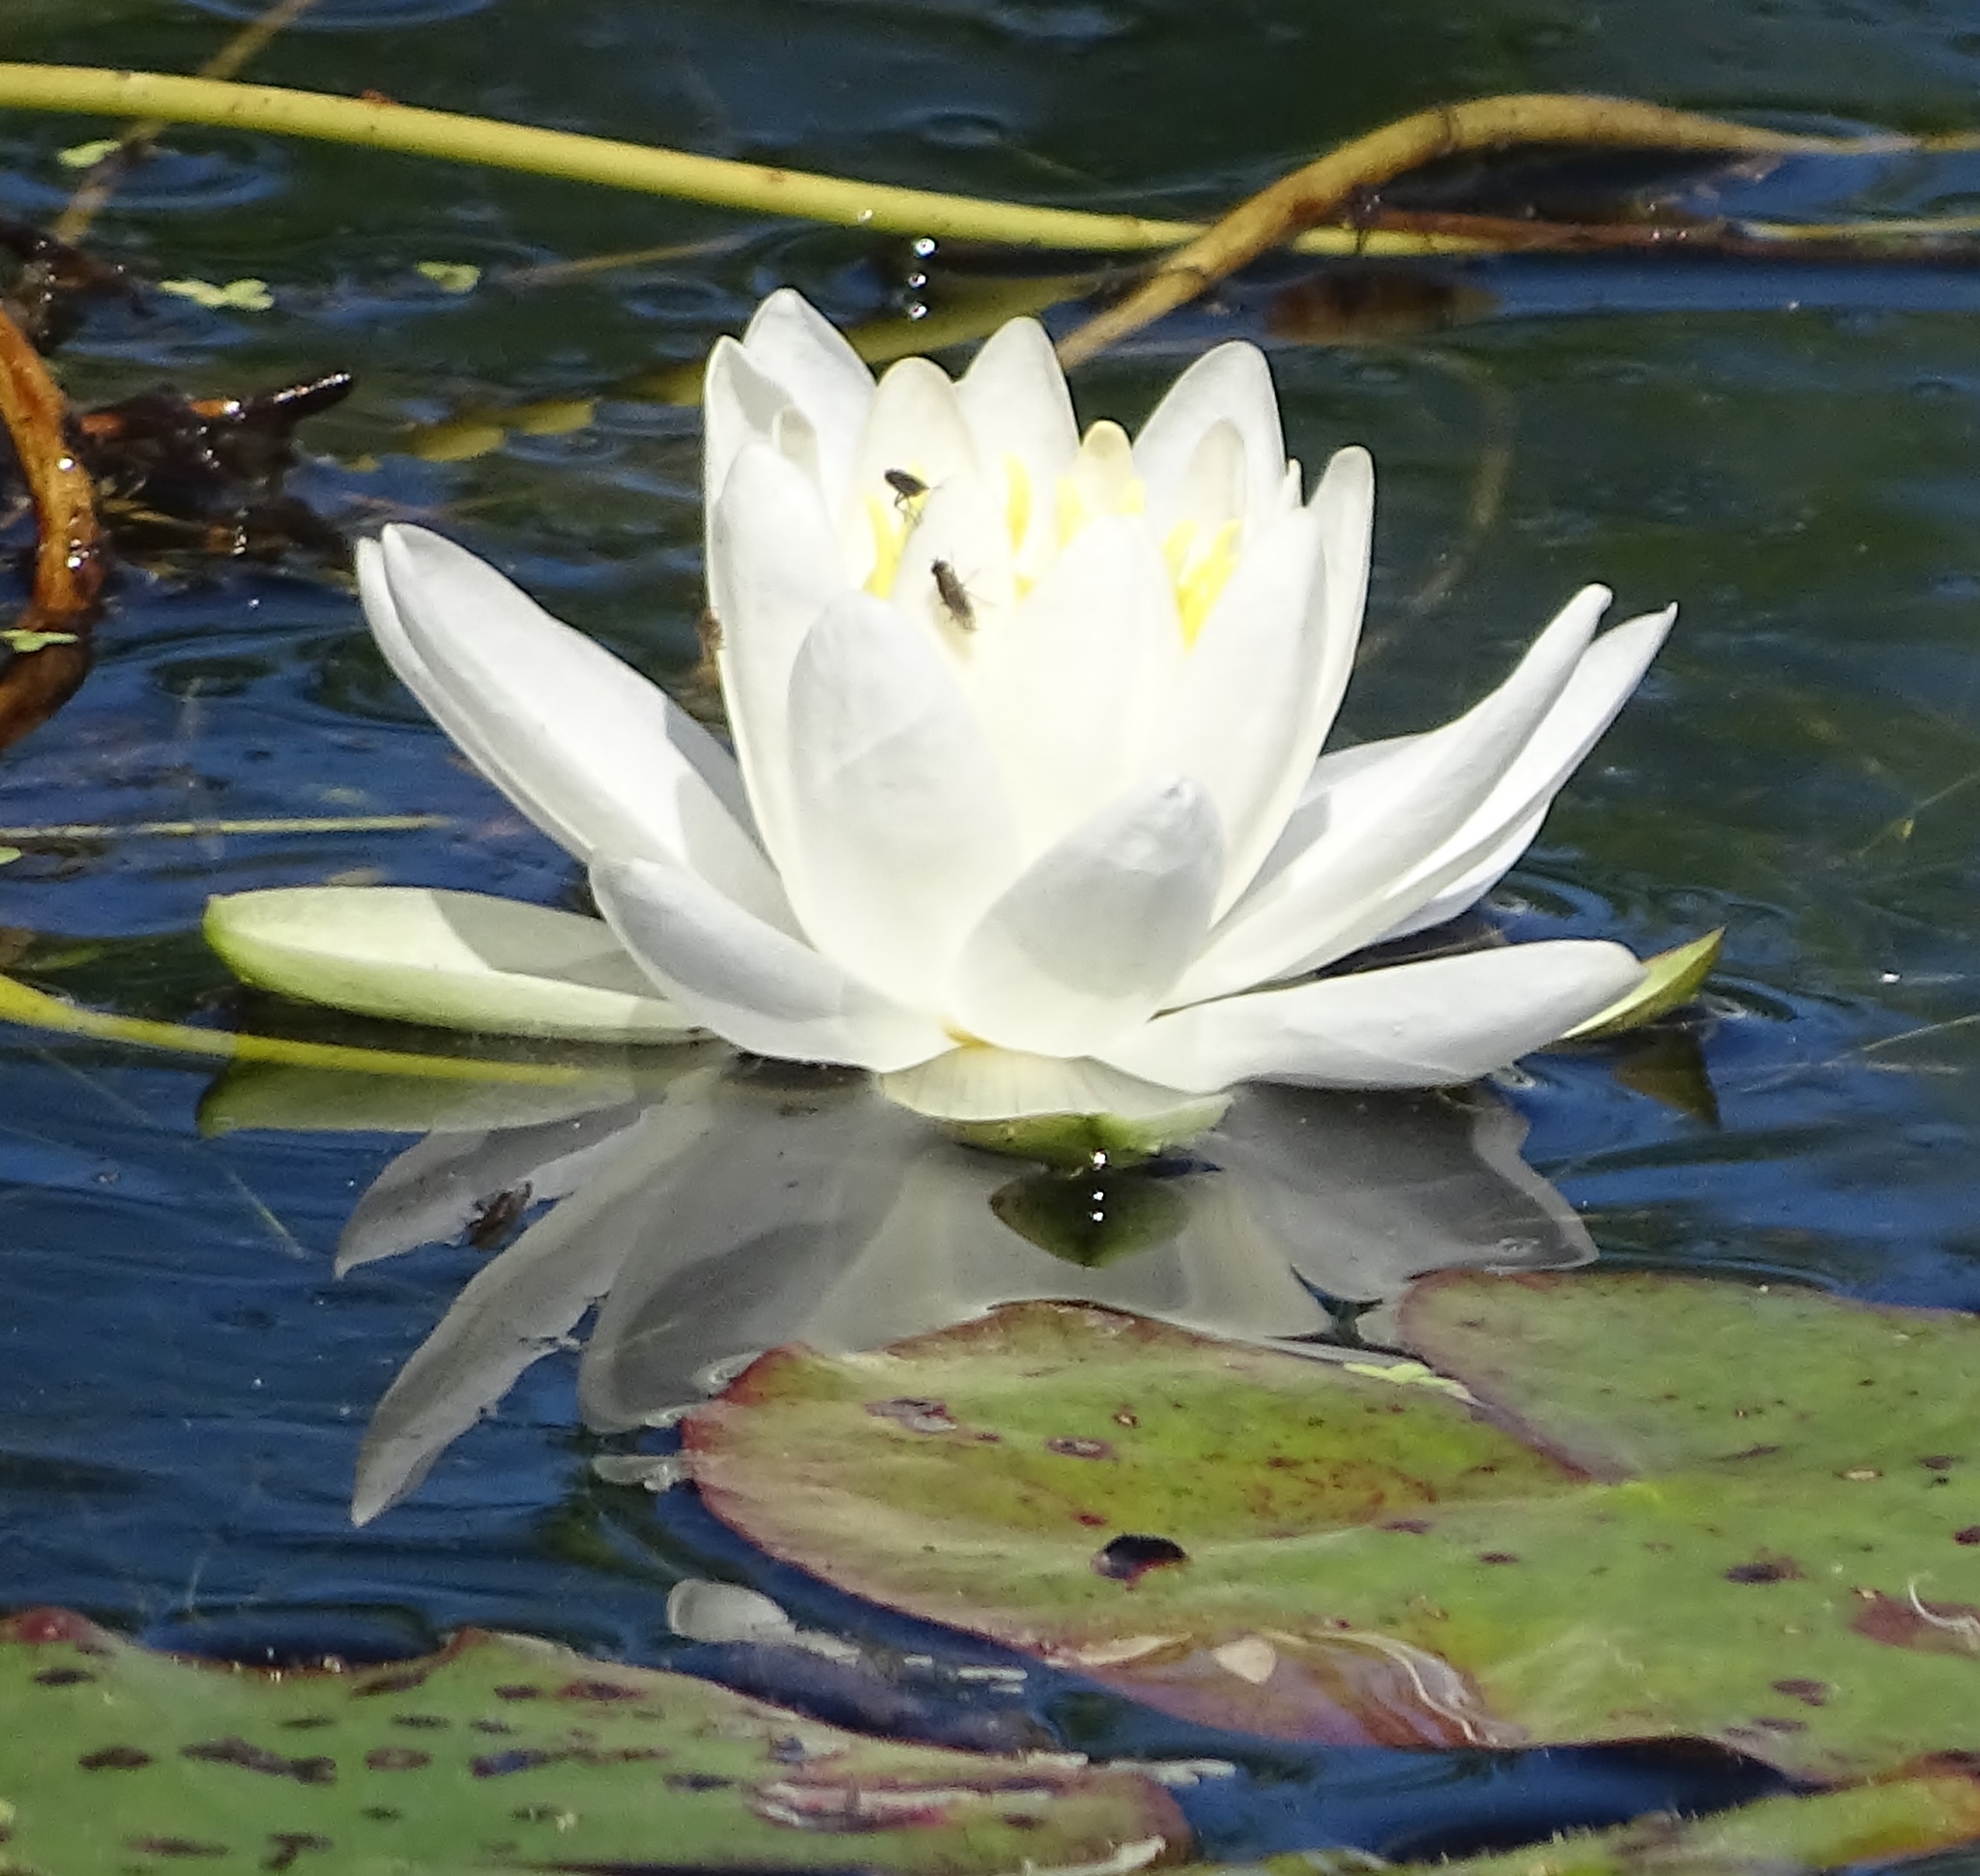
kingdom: Plantae
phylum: Tracheophyta
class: Magnoliopsida
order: Nymphaeales
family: Nymphaeaceae
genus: Nymphaea
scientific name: Nymphaea odorata
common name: Fragrant water-lily
